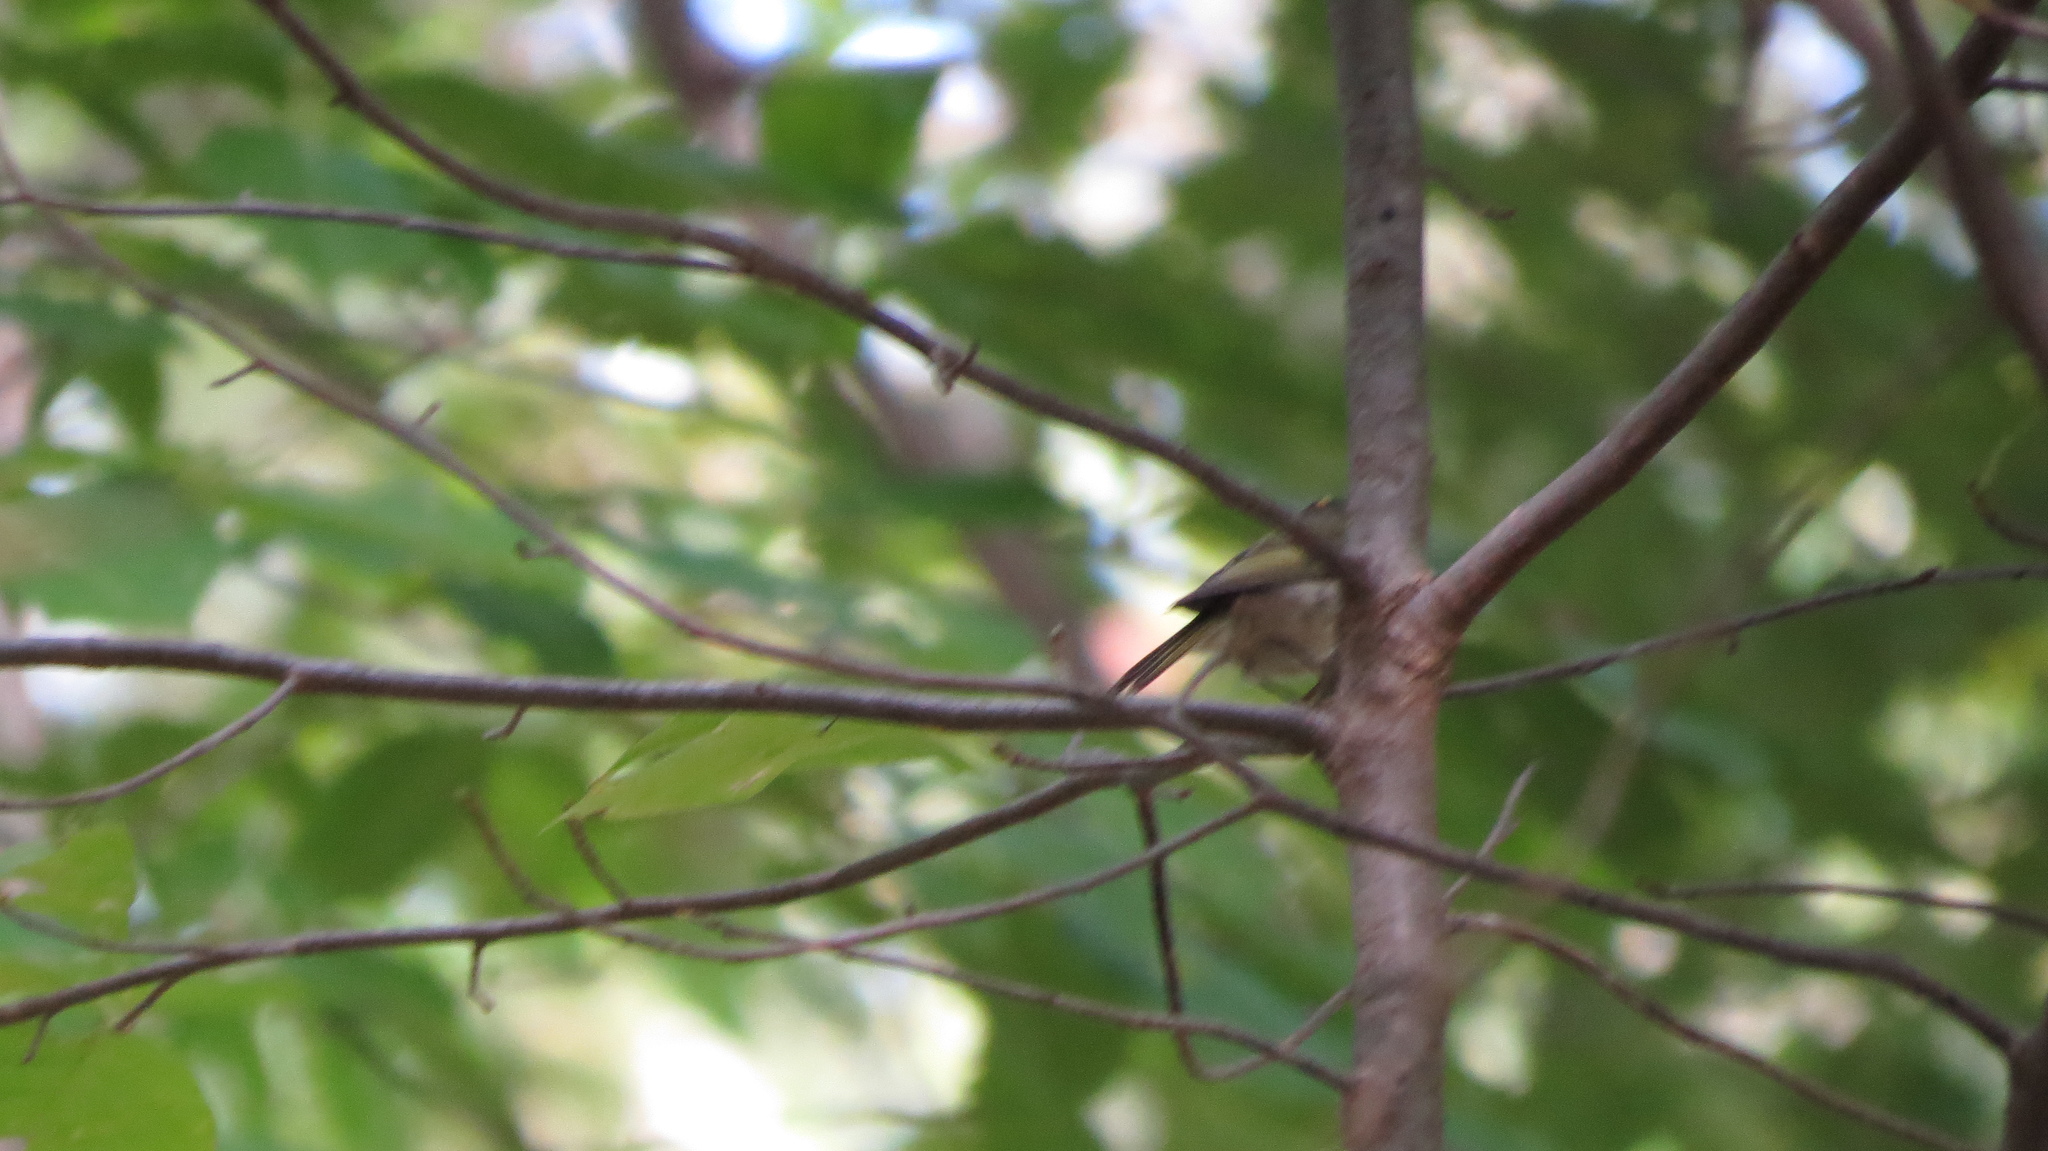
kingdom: Animalia
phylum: Chordata
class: Aves
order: Passeriformes
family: Regulidae
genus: Regulus
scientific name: Regulus satrapa
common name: Golden-crowned kinglet
